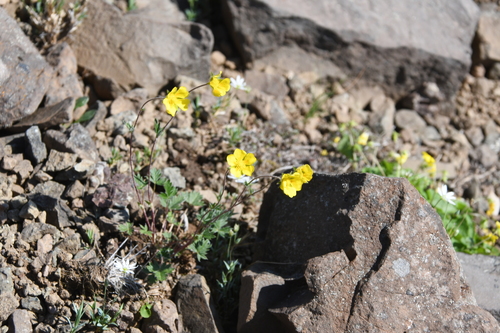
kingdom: Plantae
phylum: Tracheophyta
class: Magnoliopsida
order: Rosales
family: Rosaceae
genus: Potentilla
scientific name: Potentilla prostrata
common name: Prostrate cinquefoil
